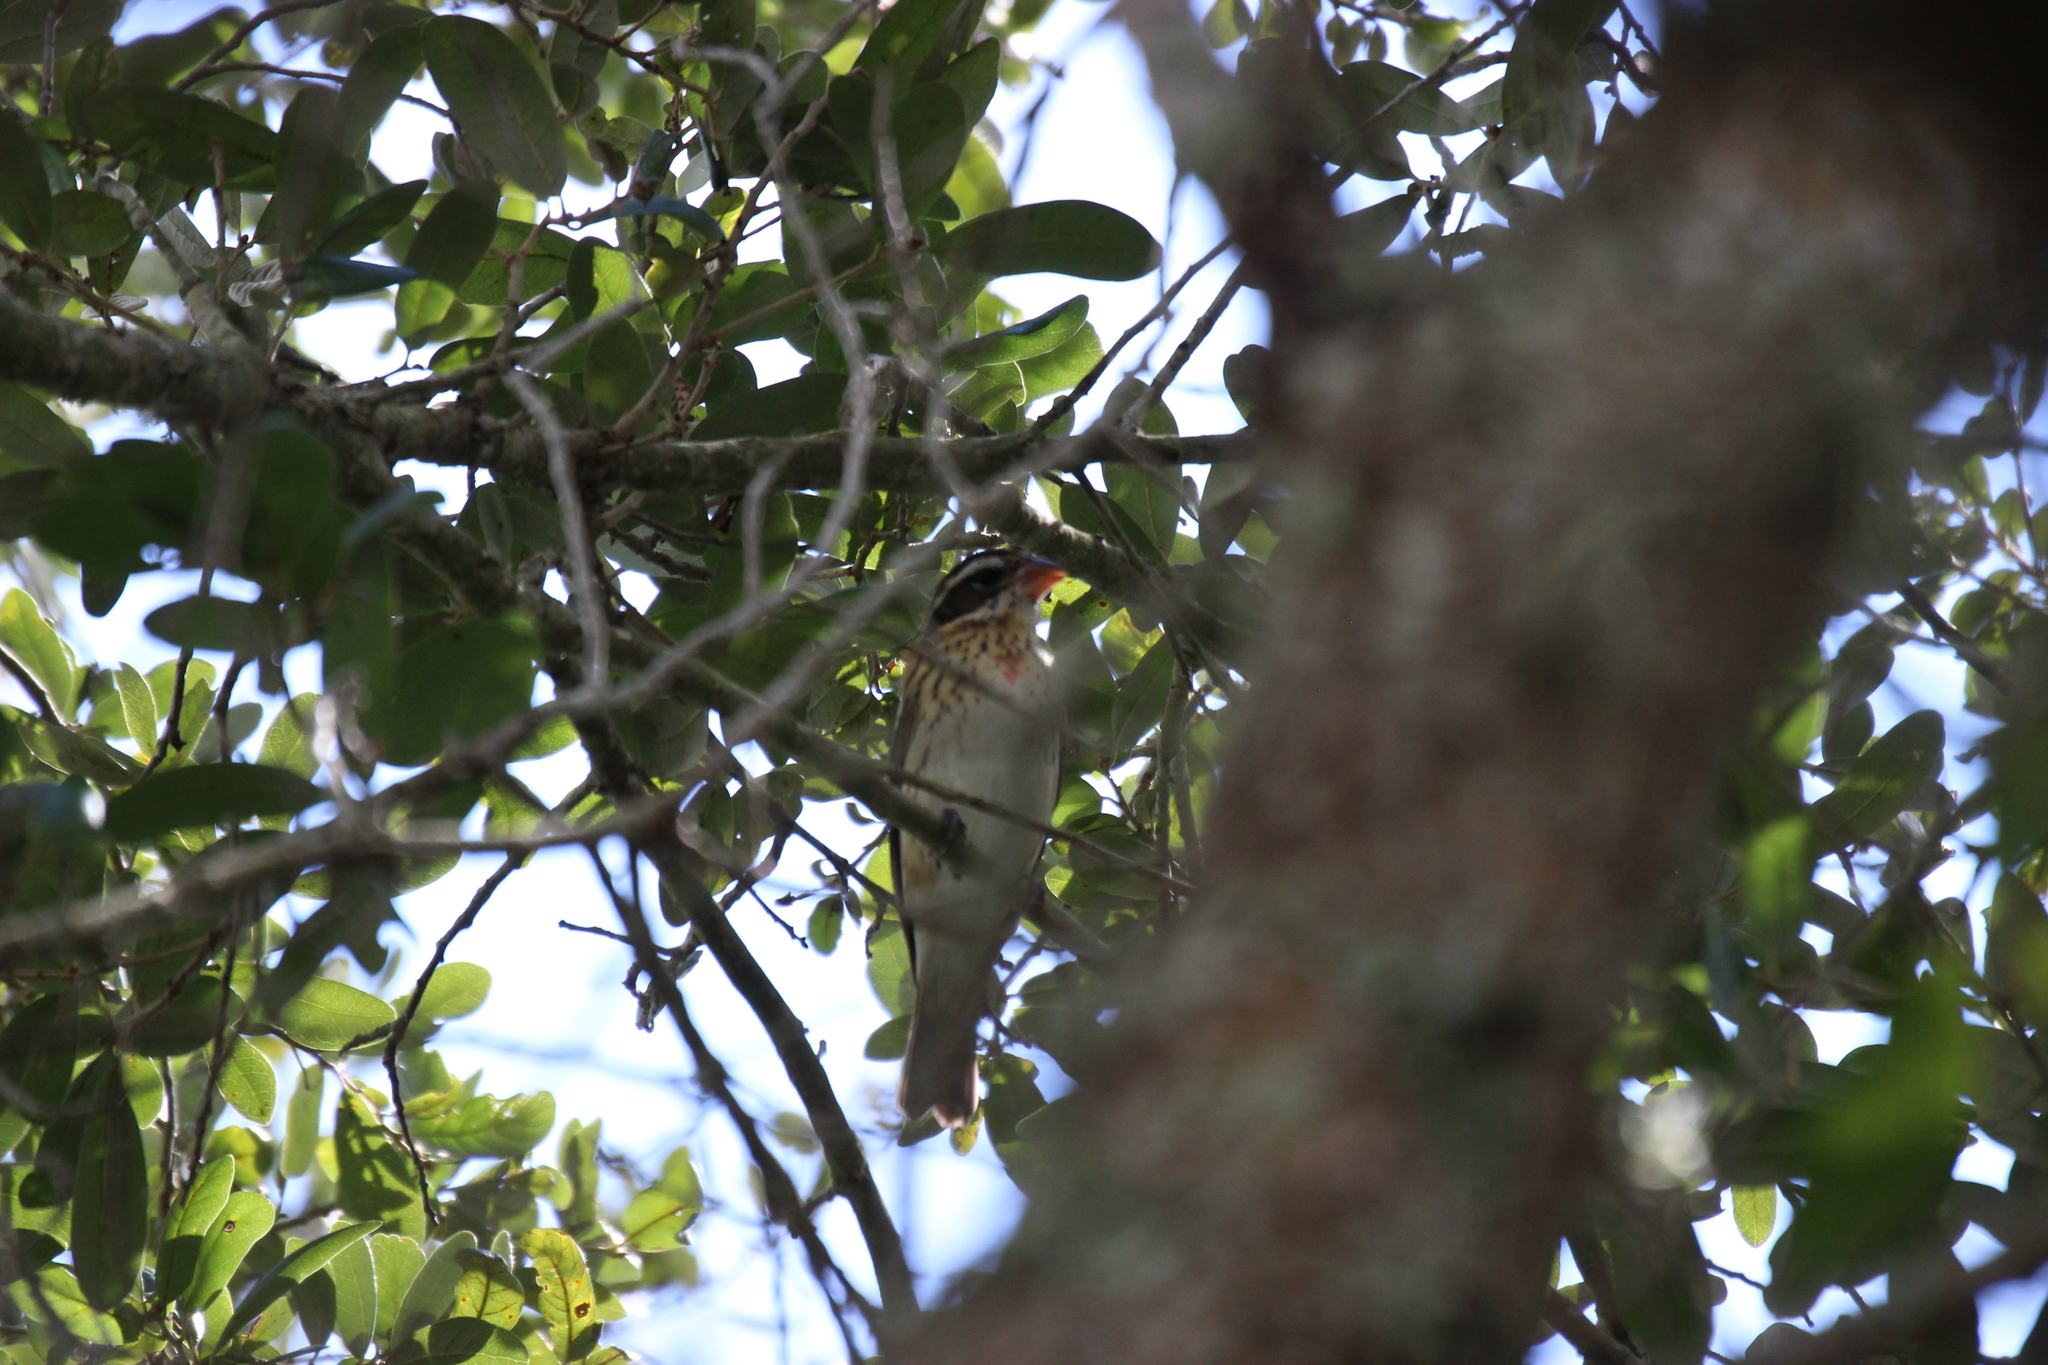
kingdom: Animalia
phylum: Chordata
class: Aves
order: Passeriformes
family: Cardinalidae
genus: Pheucticus
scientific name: Pheucticus ludovicianus
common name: Rose-breasted grosbeak
